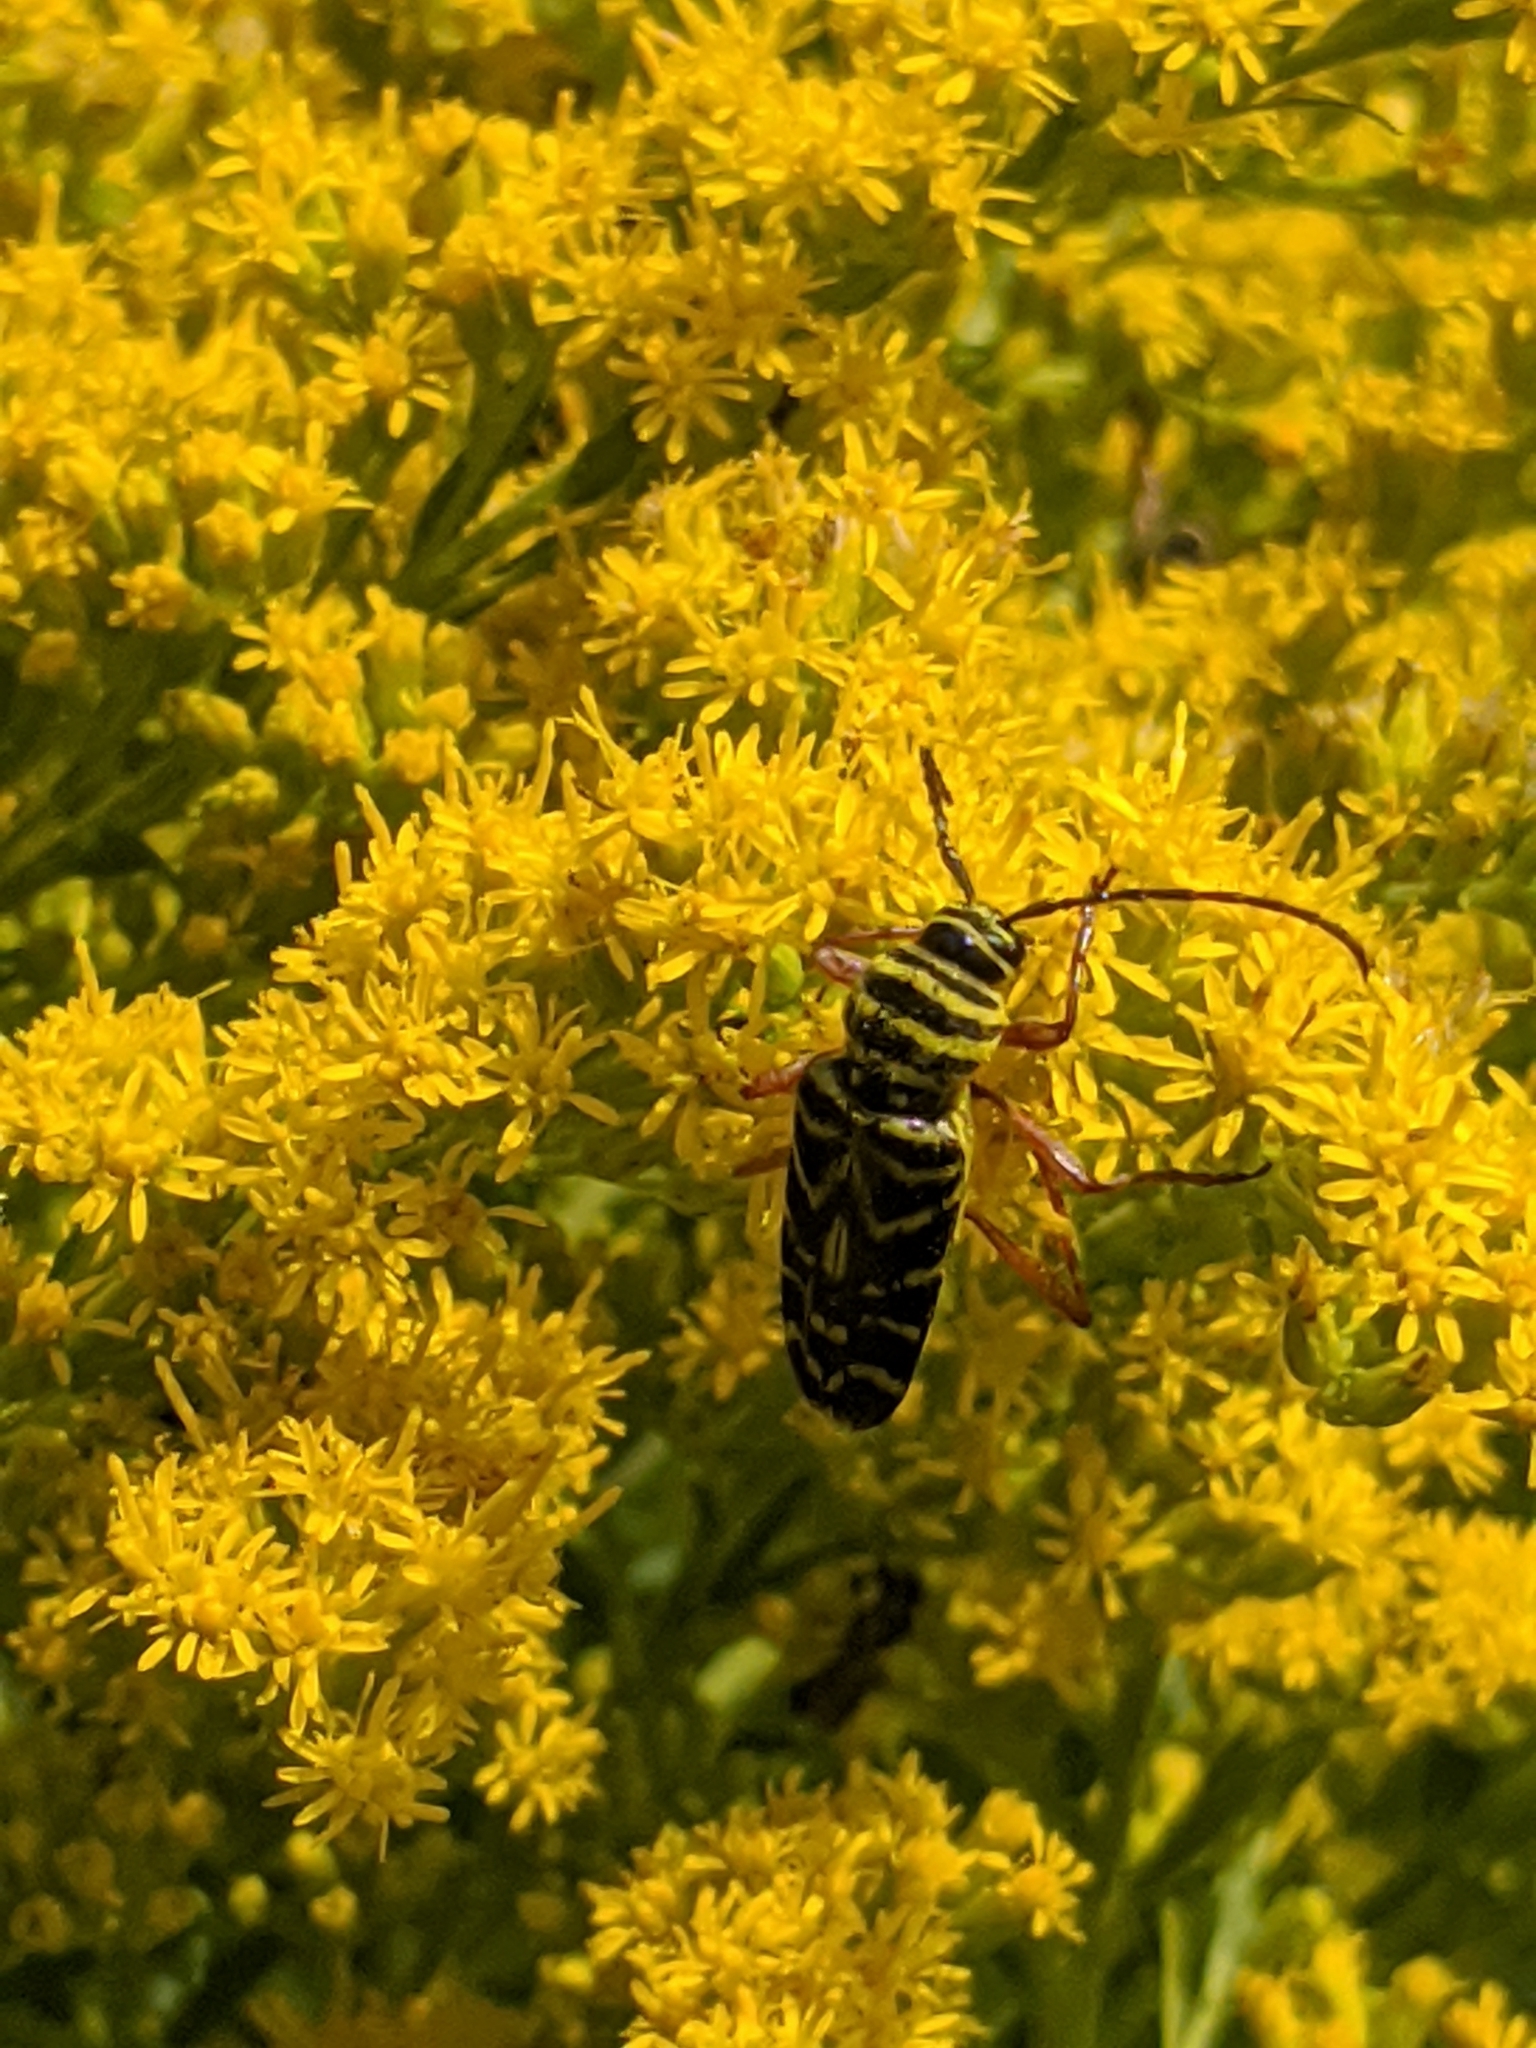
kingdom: Animalia
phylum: Arthropoda
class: Insecta
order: Coleoptera
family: Cerambycidae
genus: Megacyllene
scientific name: Megacyllene robiniae
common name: Locust borer
